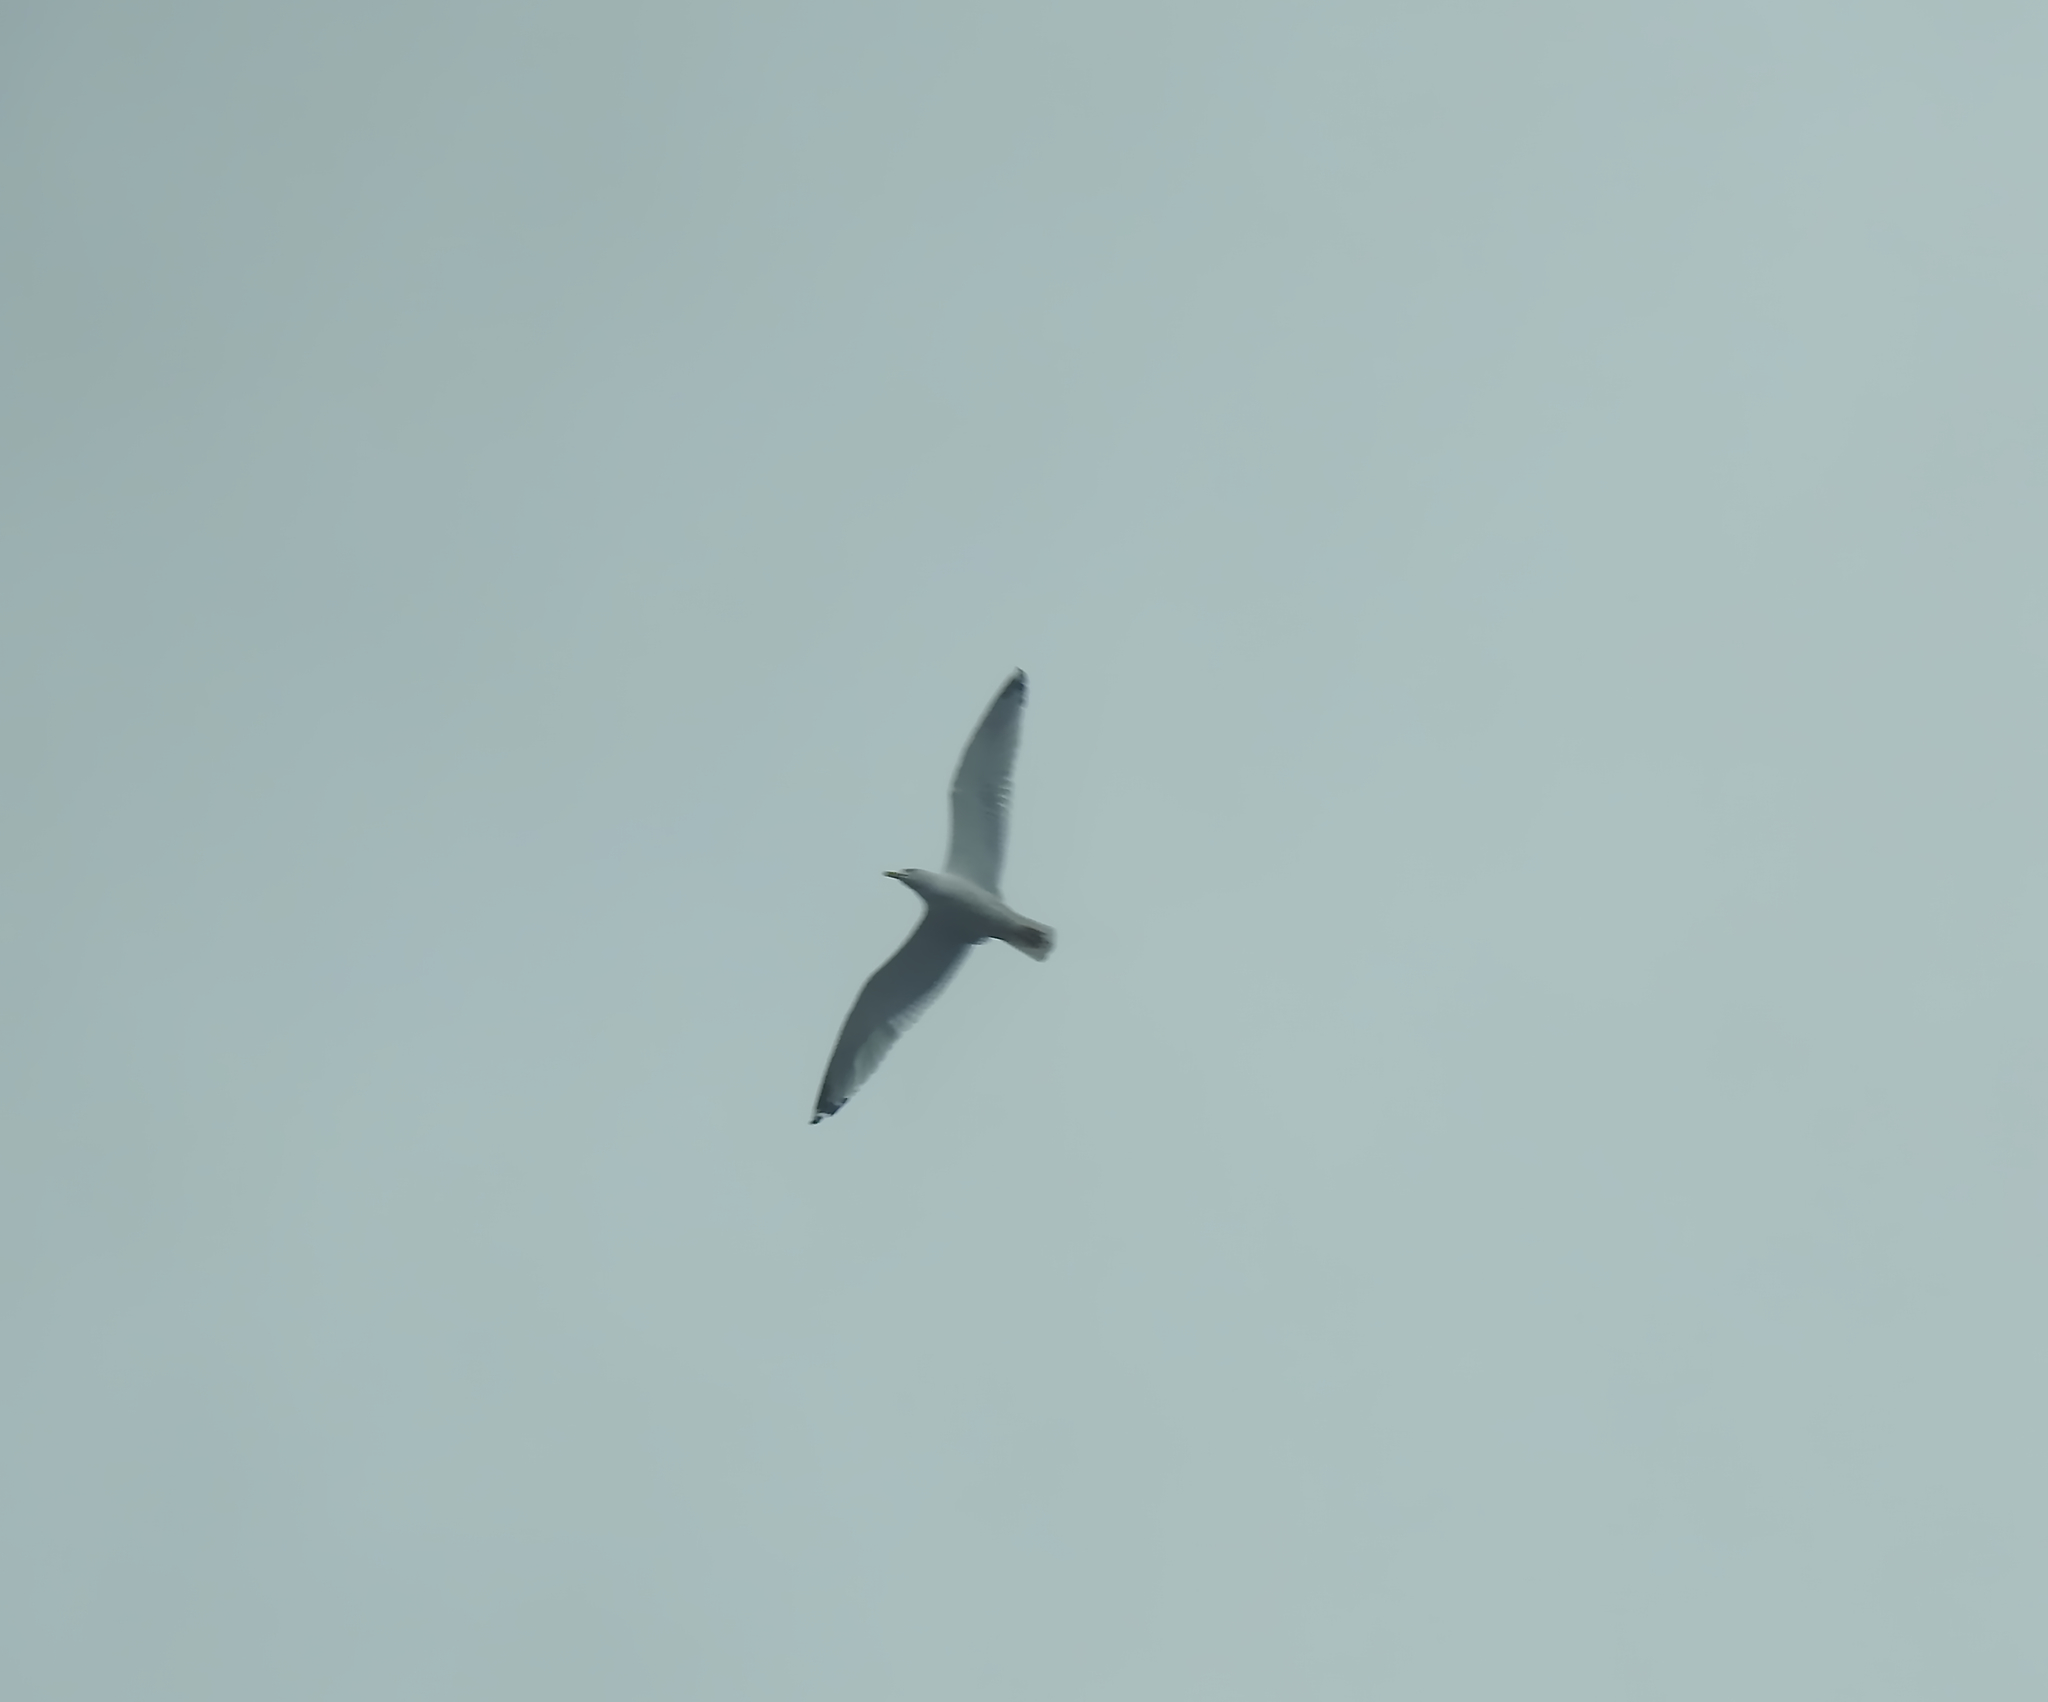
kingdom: Animalia
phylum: Chordata
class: Aves
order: Charadriiformes
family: Laridae
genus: Larus
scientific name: Larus argentatus
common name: Herring gull
